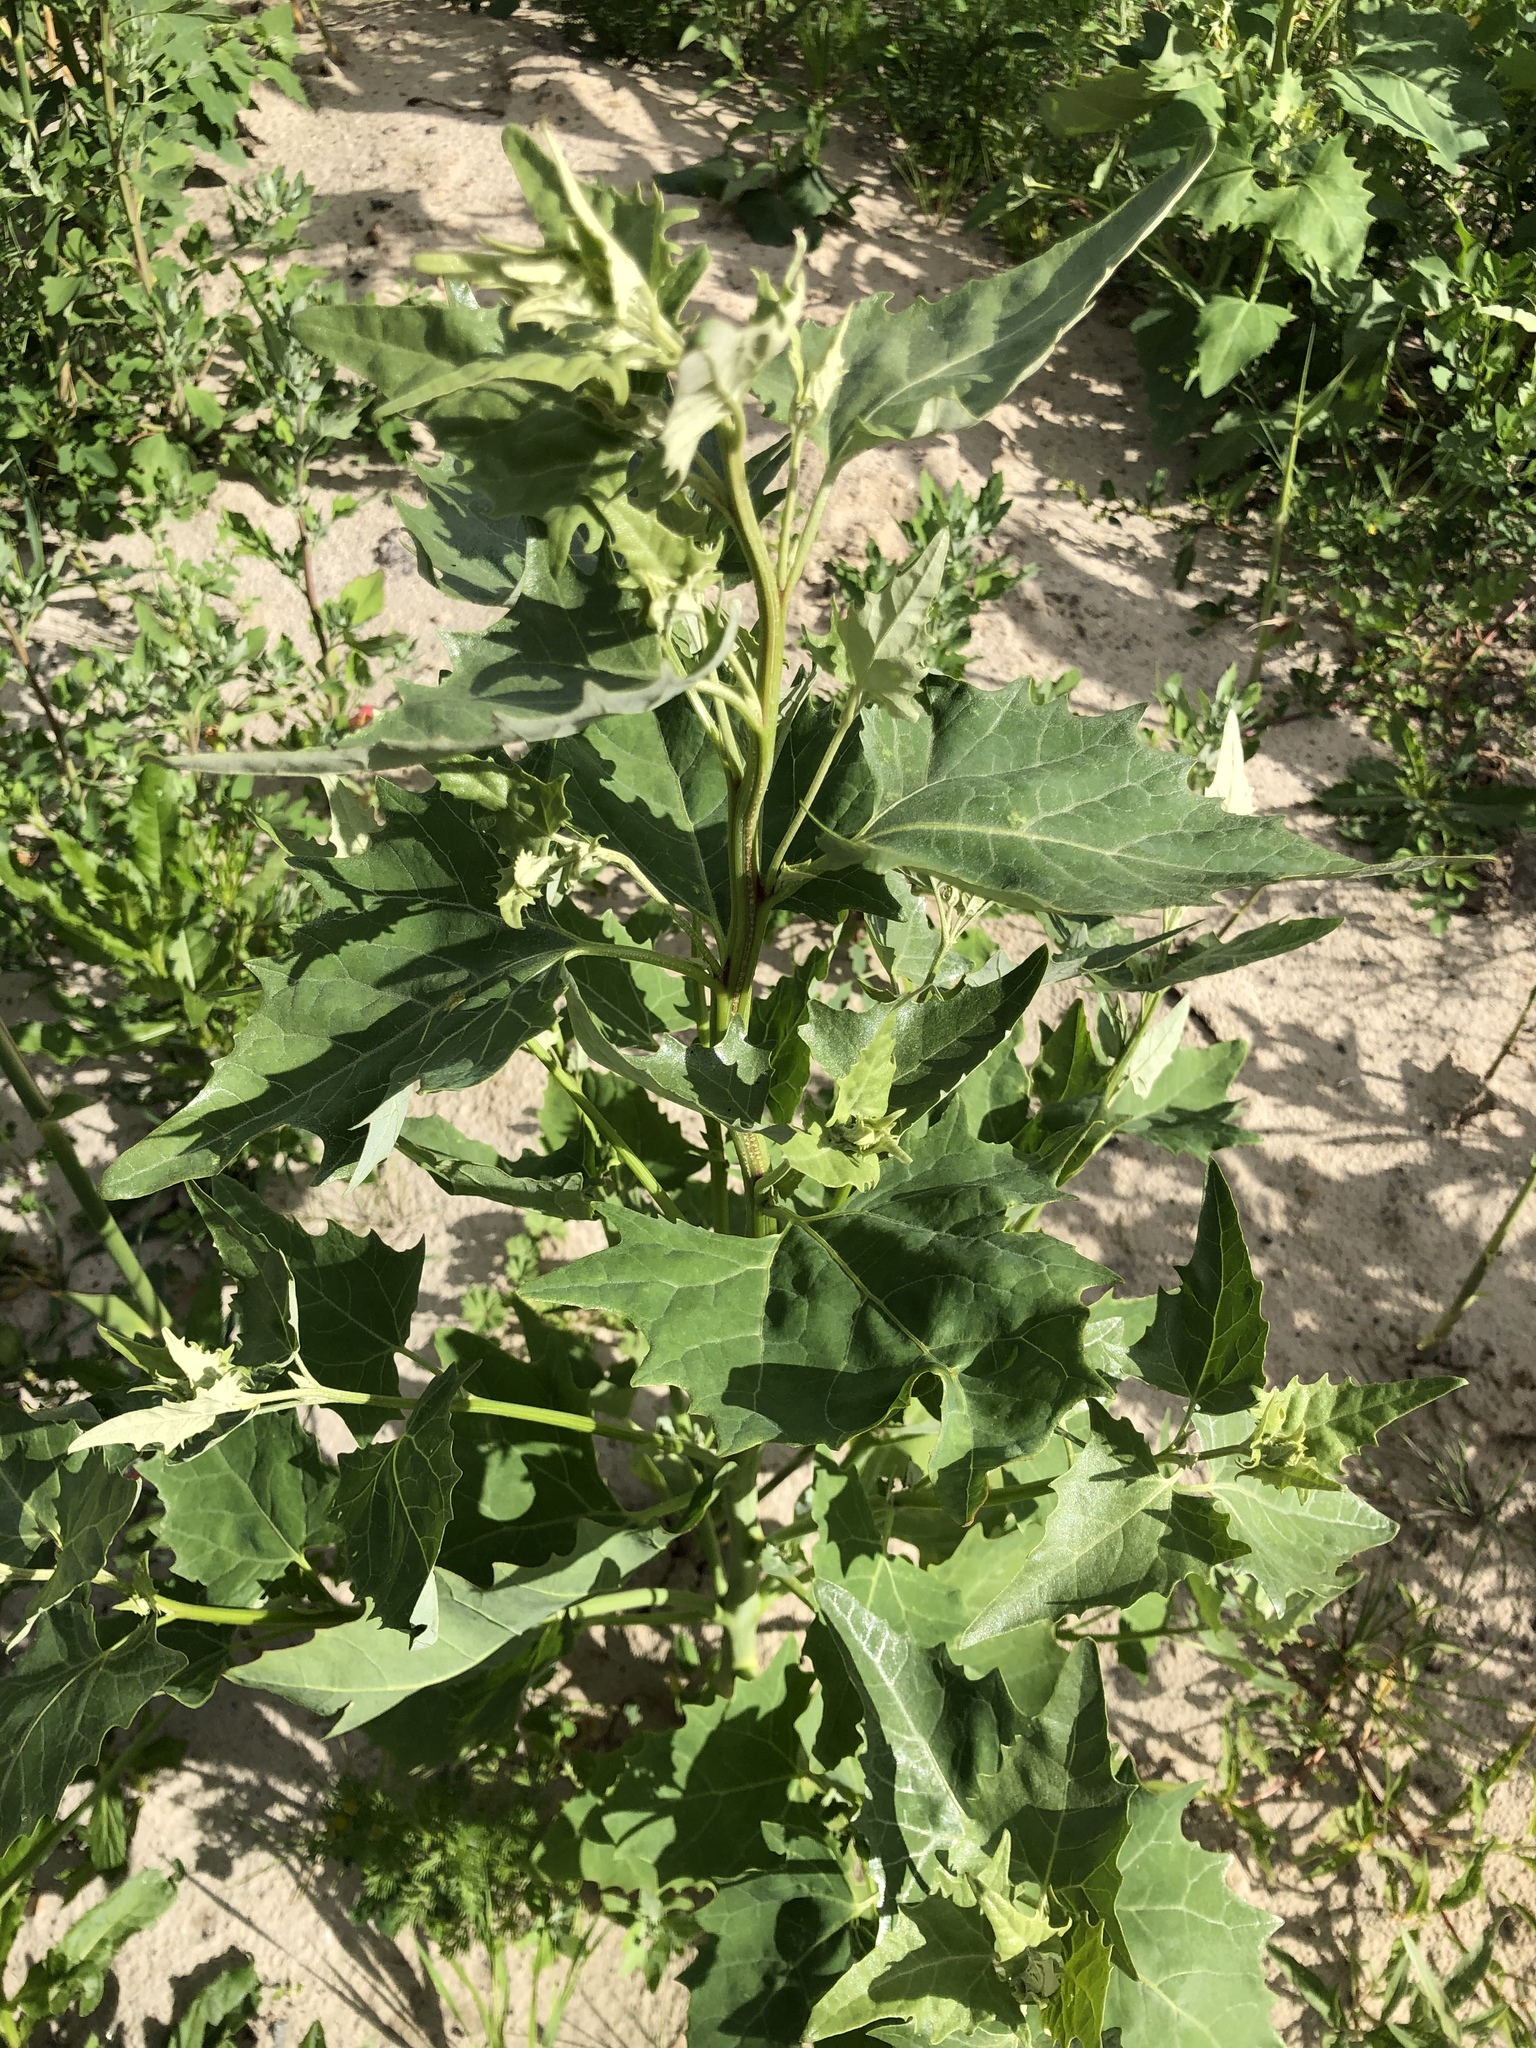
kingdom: Plantae
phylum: Tracheophyta
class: Magnoliopsida
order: Caryophyllales
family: Amaranthaceae
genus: Atriplex
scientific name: Atriplex sagittata
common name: Purple orache
